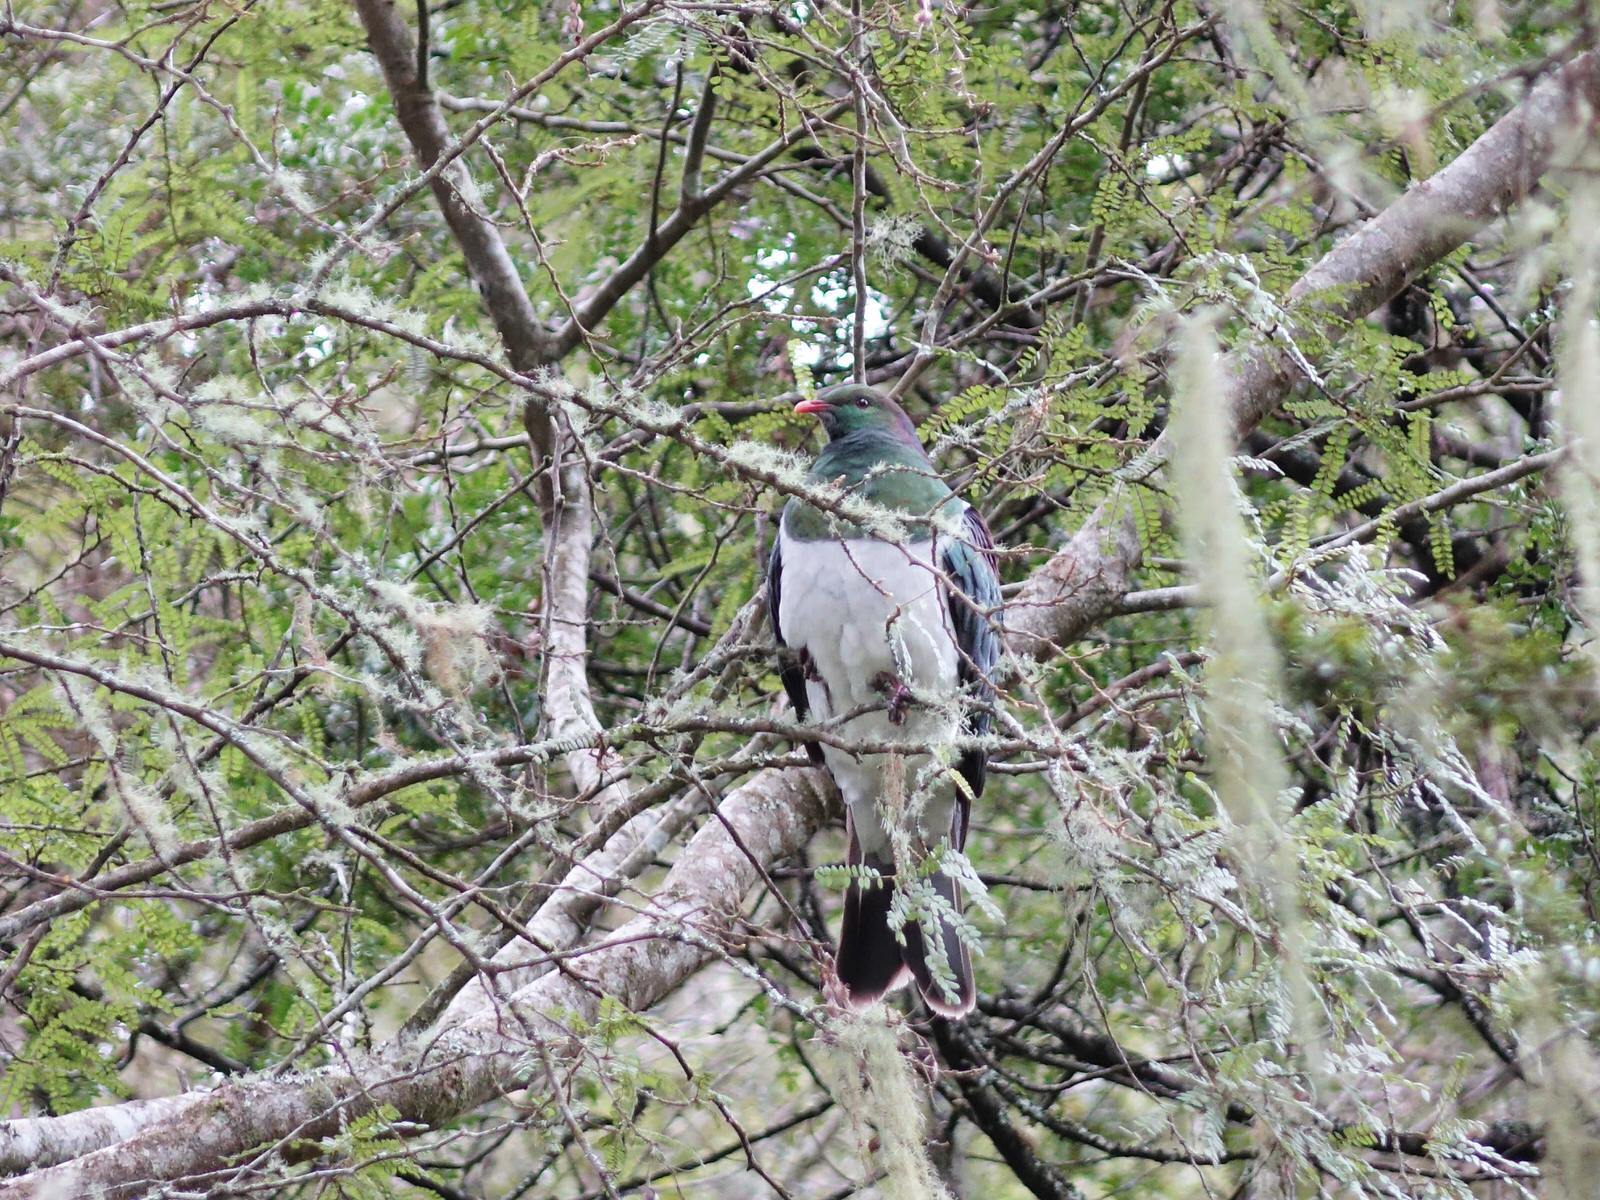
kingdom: Animalia
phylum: Chordata
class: Aves
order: Columbiformes
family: Columbidae
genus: Hemiphaga
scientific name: Hemiphaga novaeseelandiae
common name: New zealand pigeon
